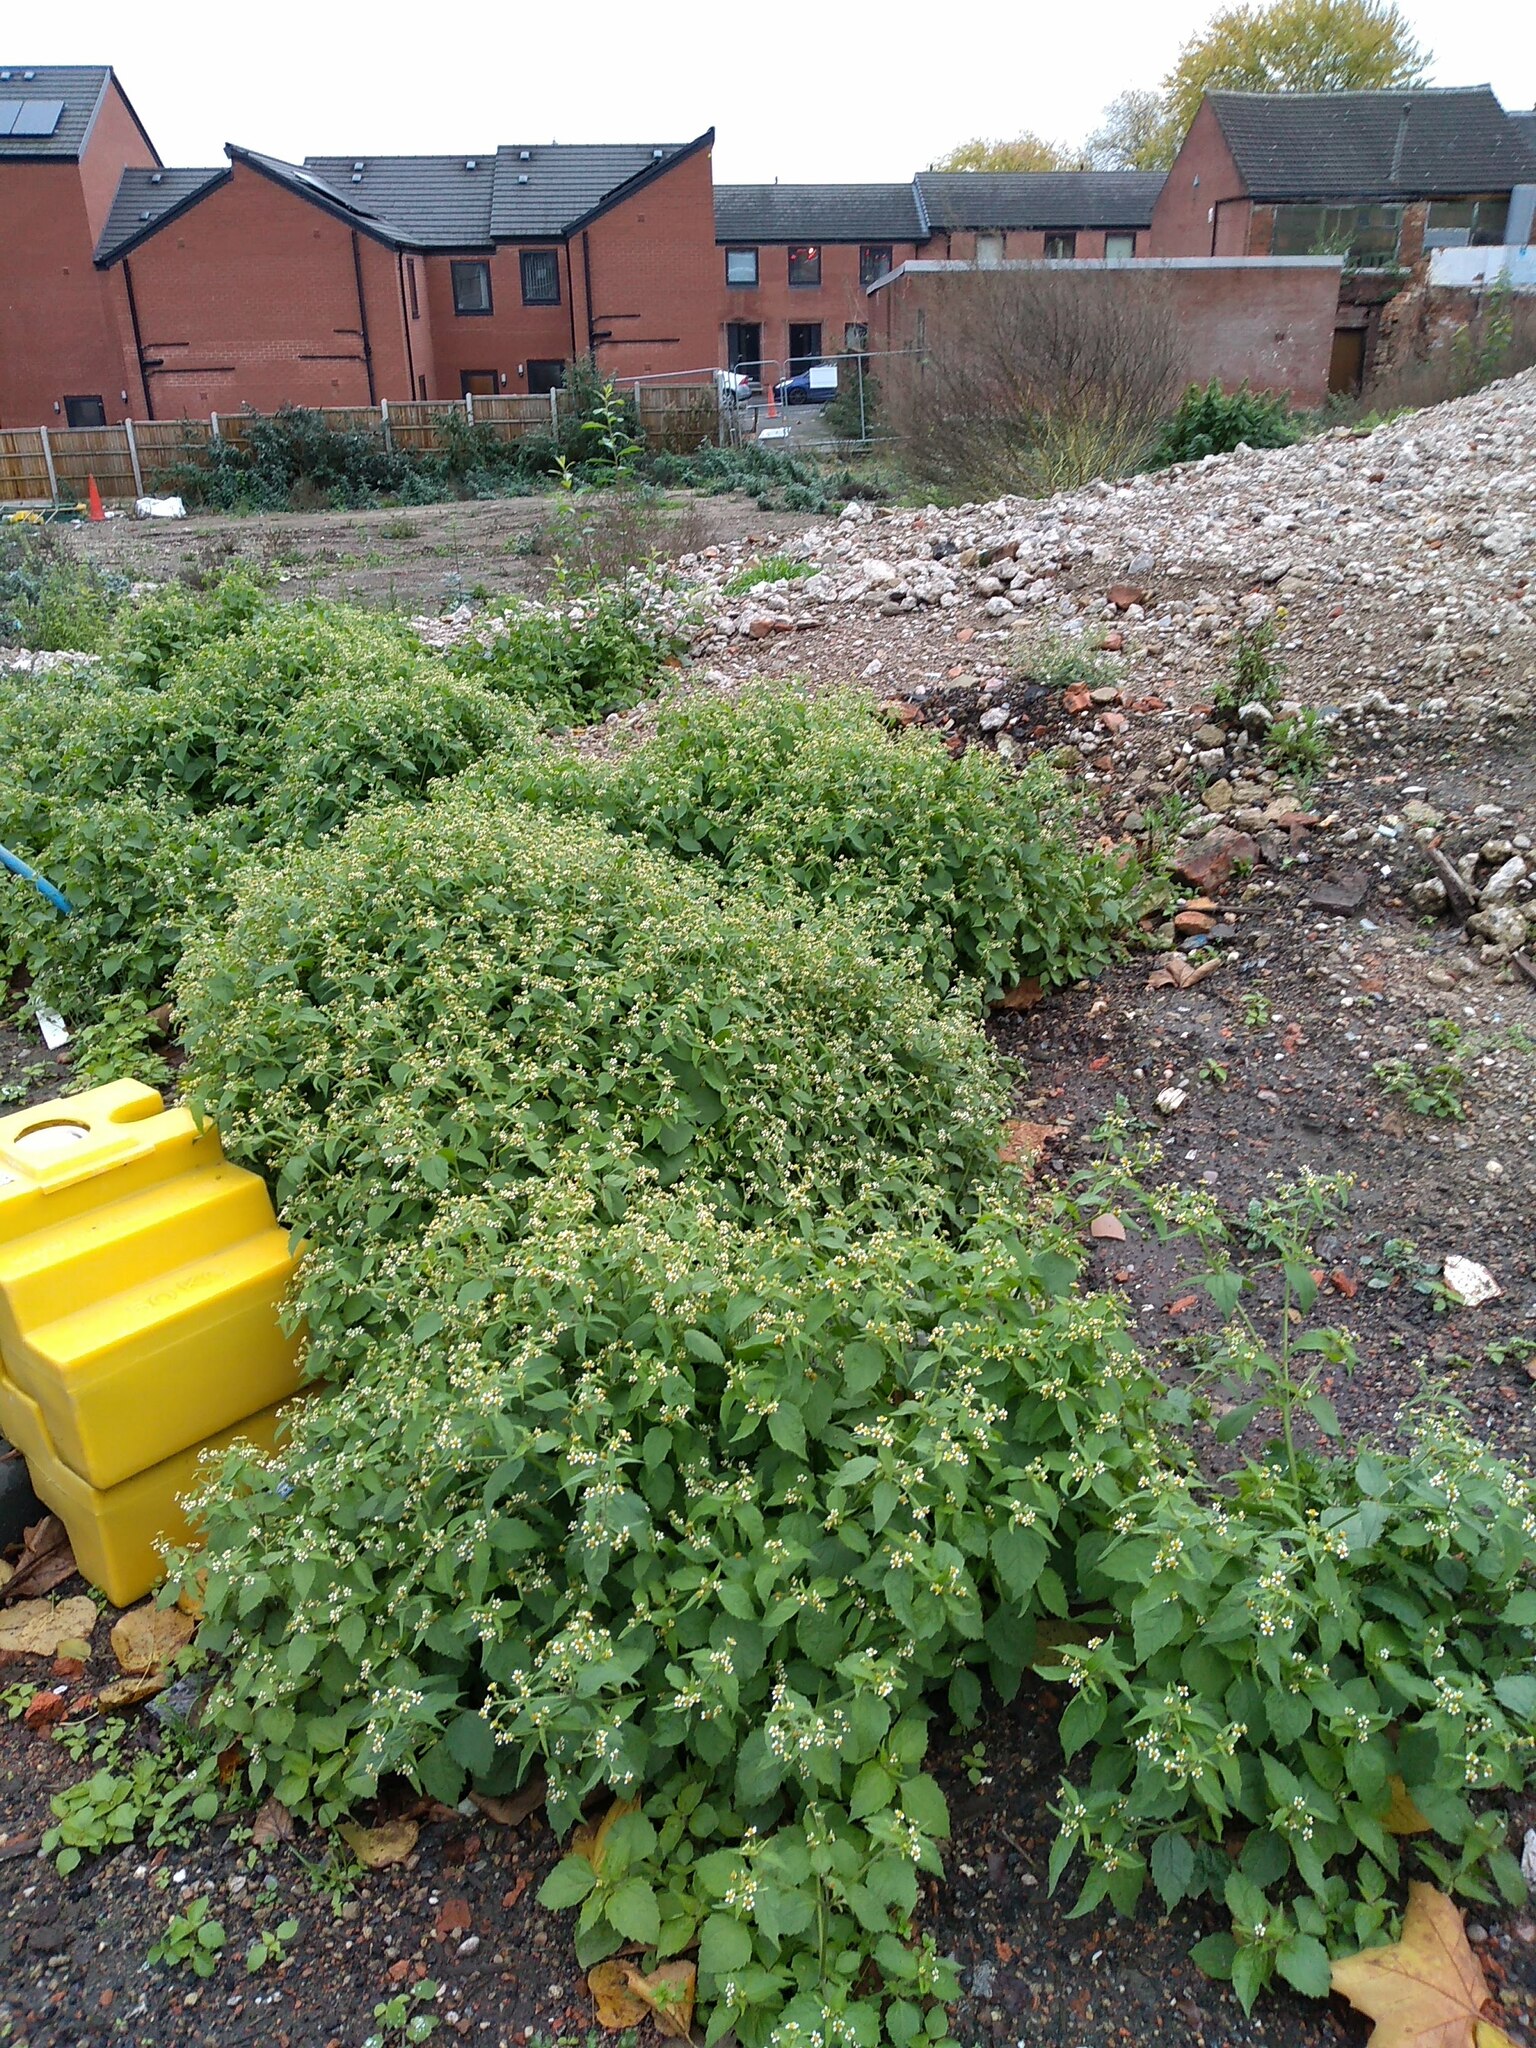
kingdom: Plantae
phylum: Tracheophyta
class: Magnoliopsida
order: Asterales
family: Asteraceae
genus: Galinsoga
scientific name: Galinsoga quadriradiata
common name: Shaggy soldier
